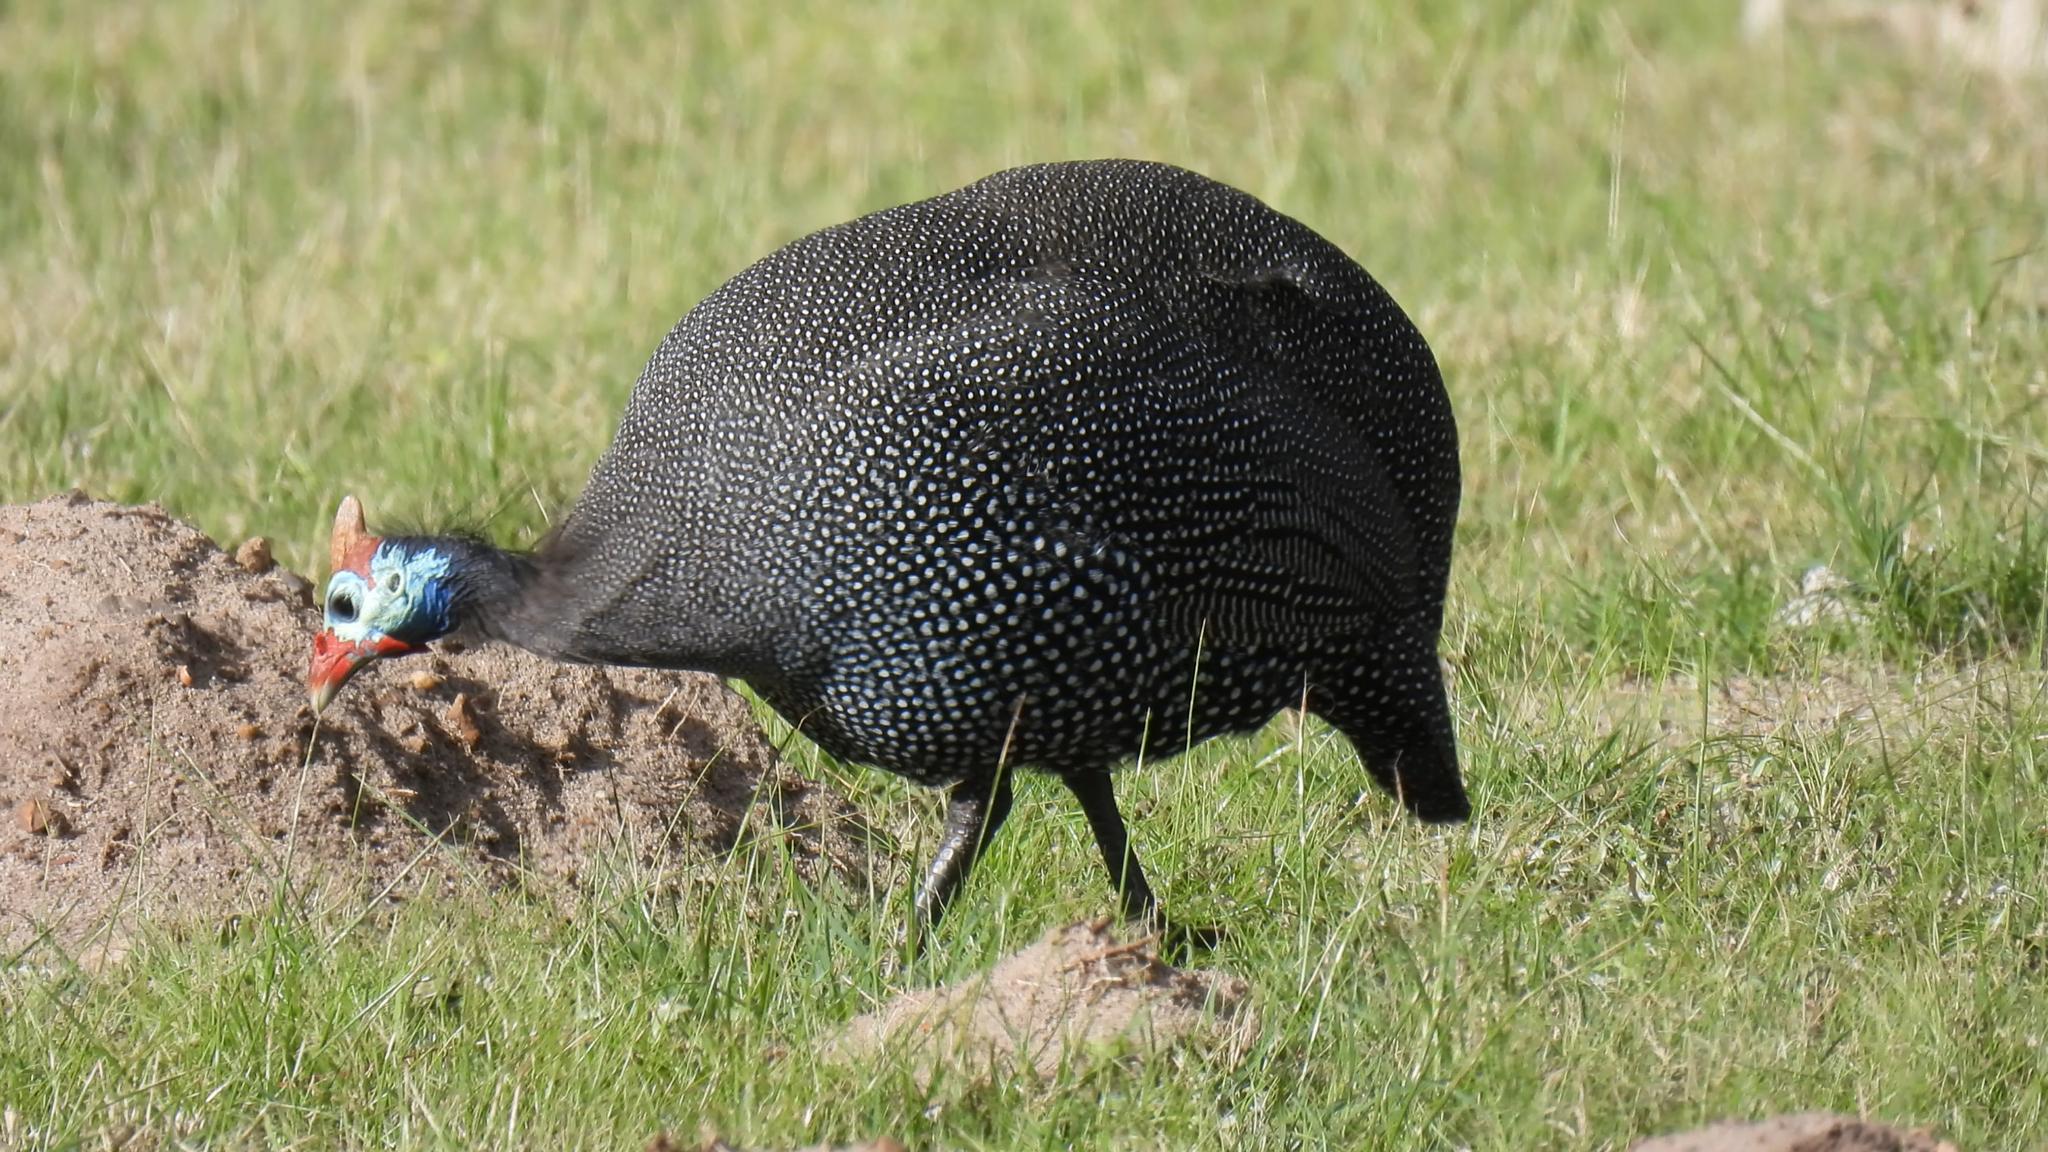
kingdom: Animalia
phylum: Chordata
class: Aves
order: Galliformes
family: Numididae
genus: Numida
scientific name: Numida meleagris
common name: Helmeted guineafowl
